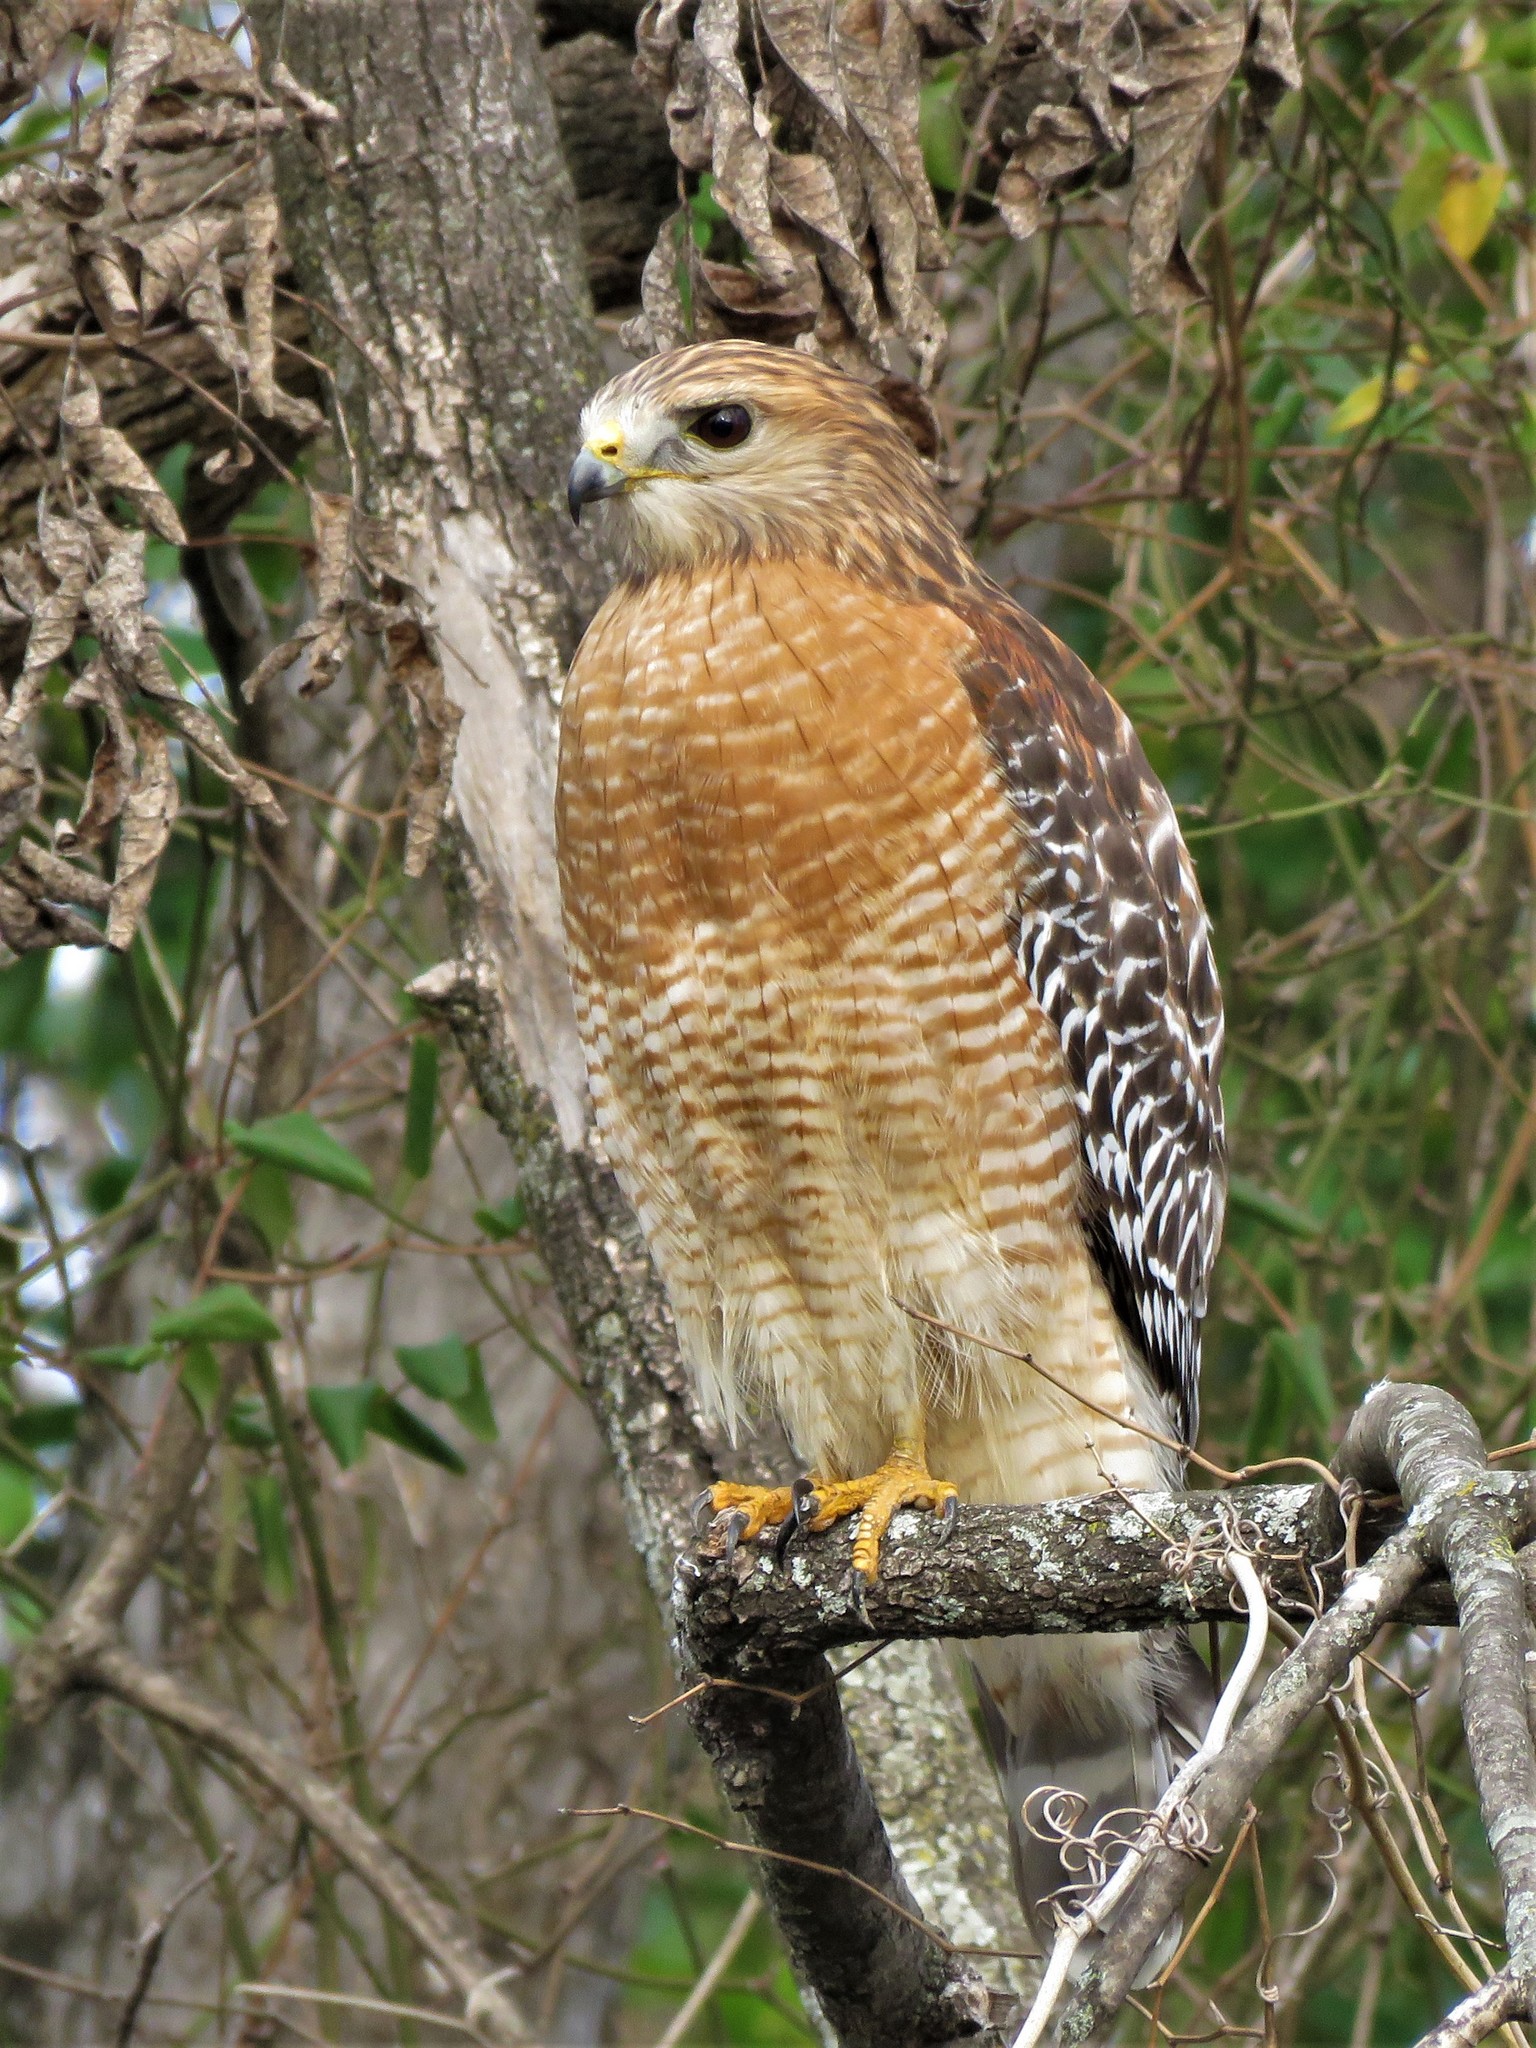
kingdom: Animalia
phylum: Chordata
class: Aves
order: Accipitriformes
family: Accipitridae
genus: Buteo
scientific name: Buteo lineatus
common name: Red-shouldered hawk
